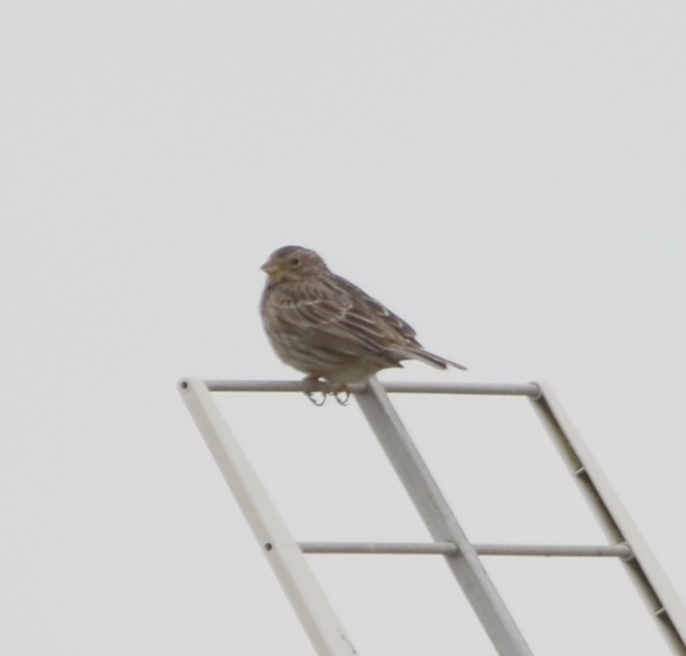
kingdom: Animalia
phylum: Chordata
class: Aves
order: Passeriformes
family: Emberizidae
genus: Emberiza
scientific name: Emberiza calandra
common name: Corn bunting
